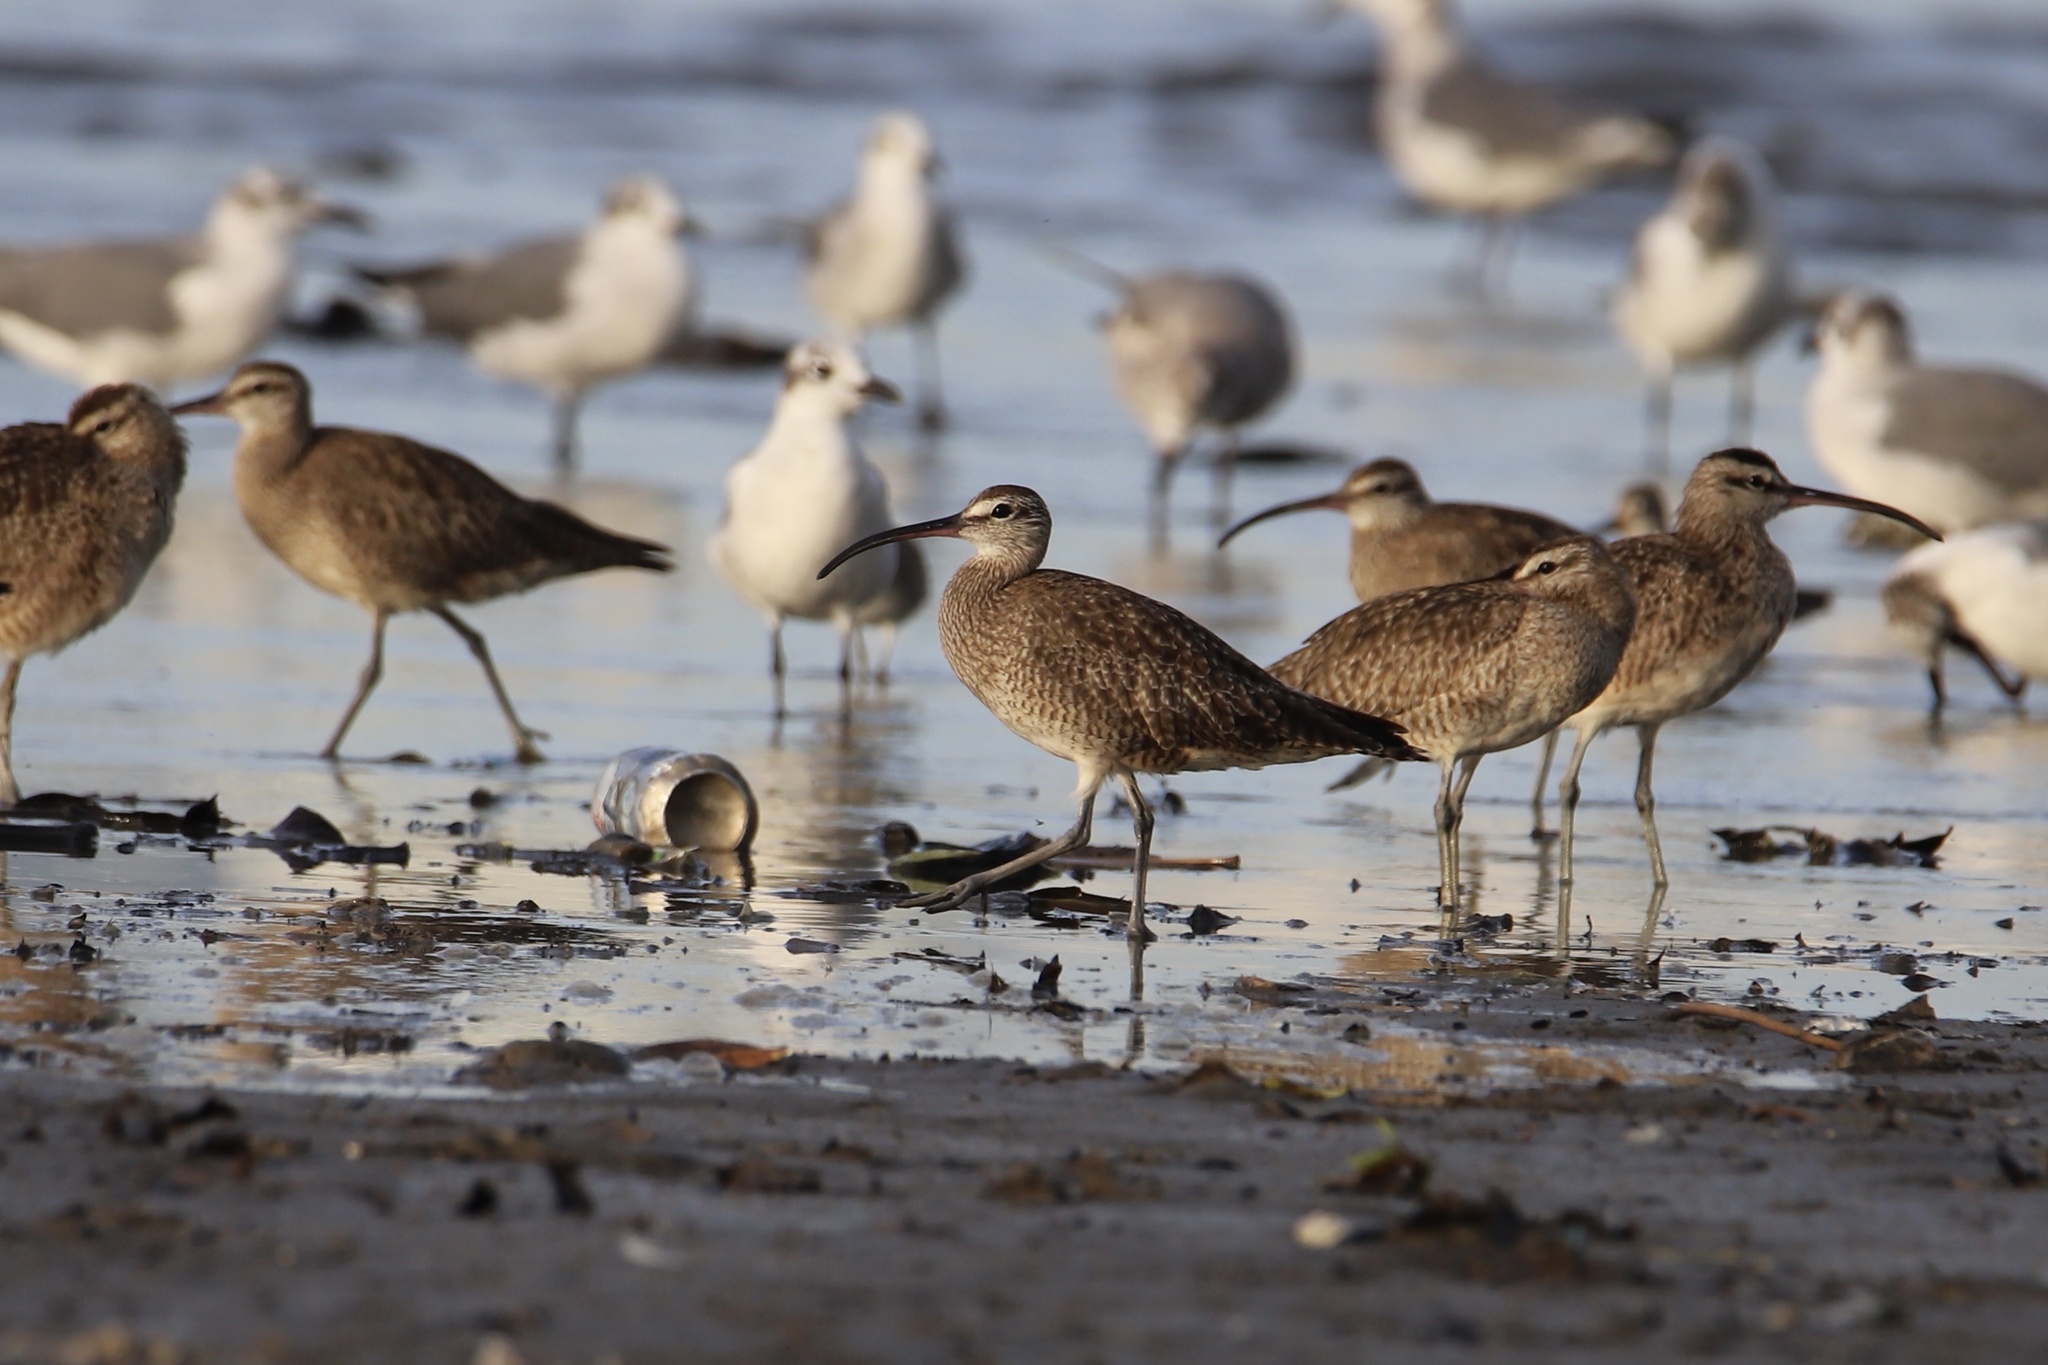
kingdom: Animalia
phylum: Chordata
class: Aves
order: Charadriiformes
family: Scolopacidae
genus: Numenius
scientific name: Numenius phaeopus
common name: Whimbrel
